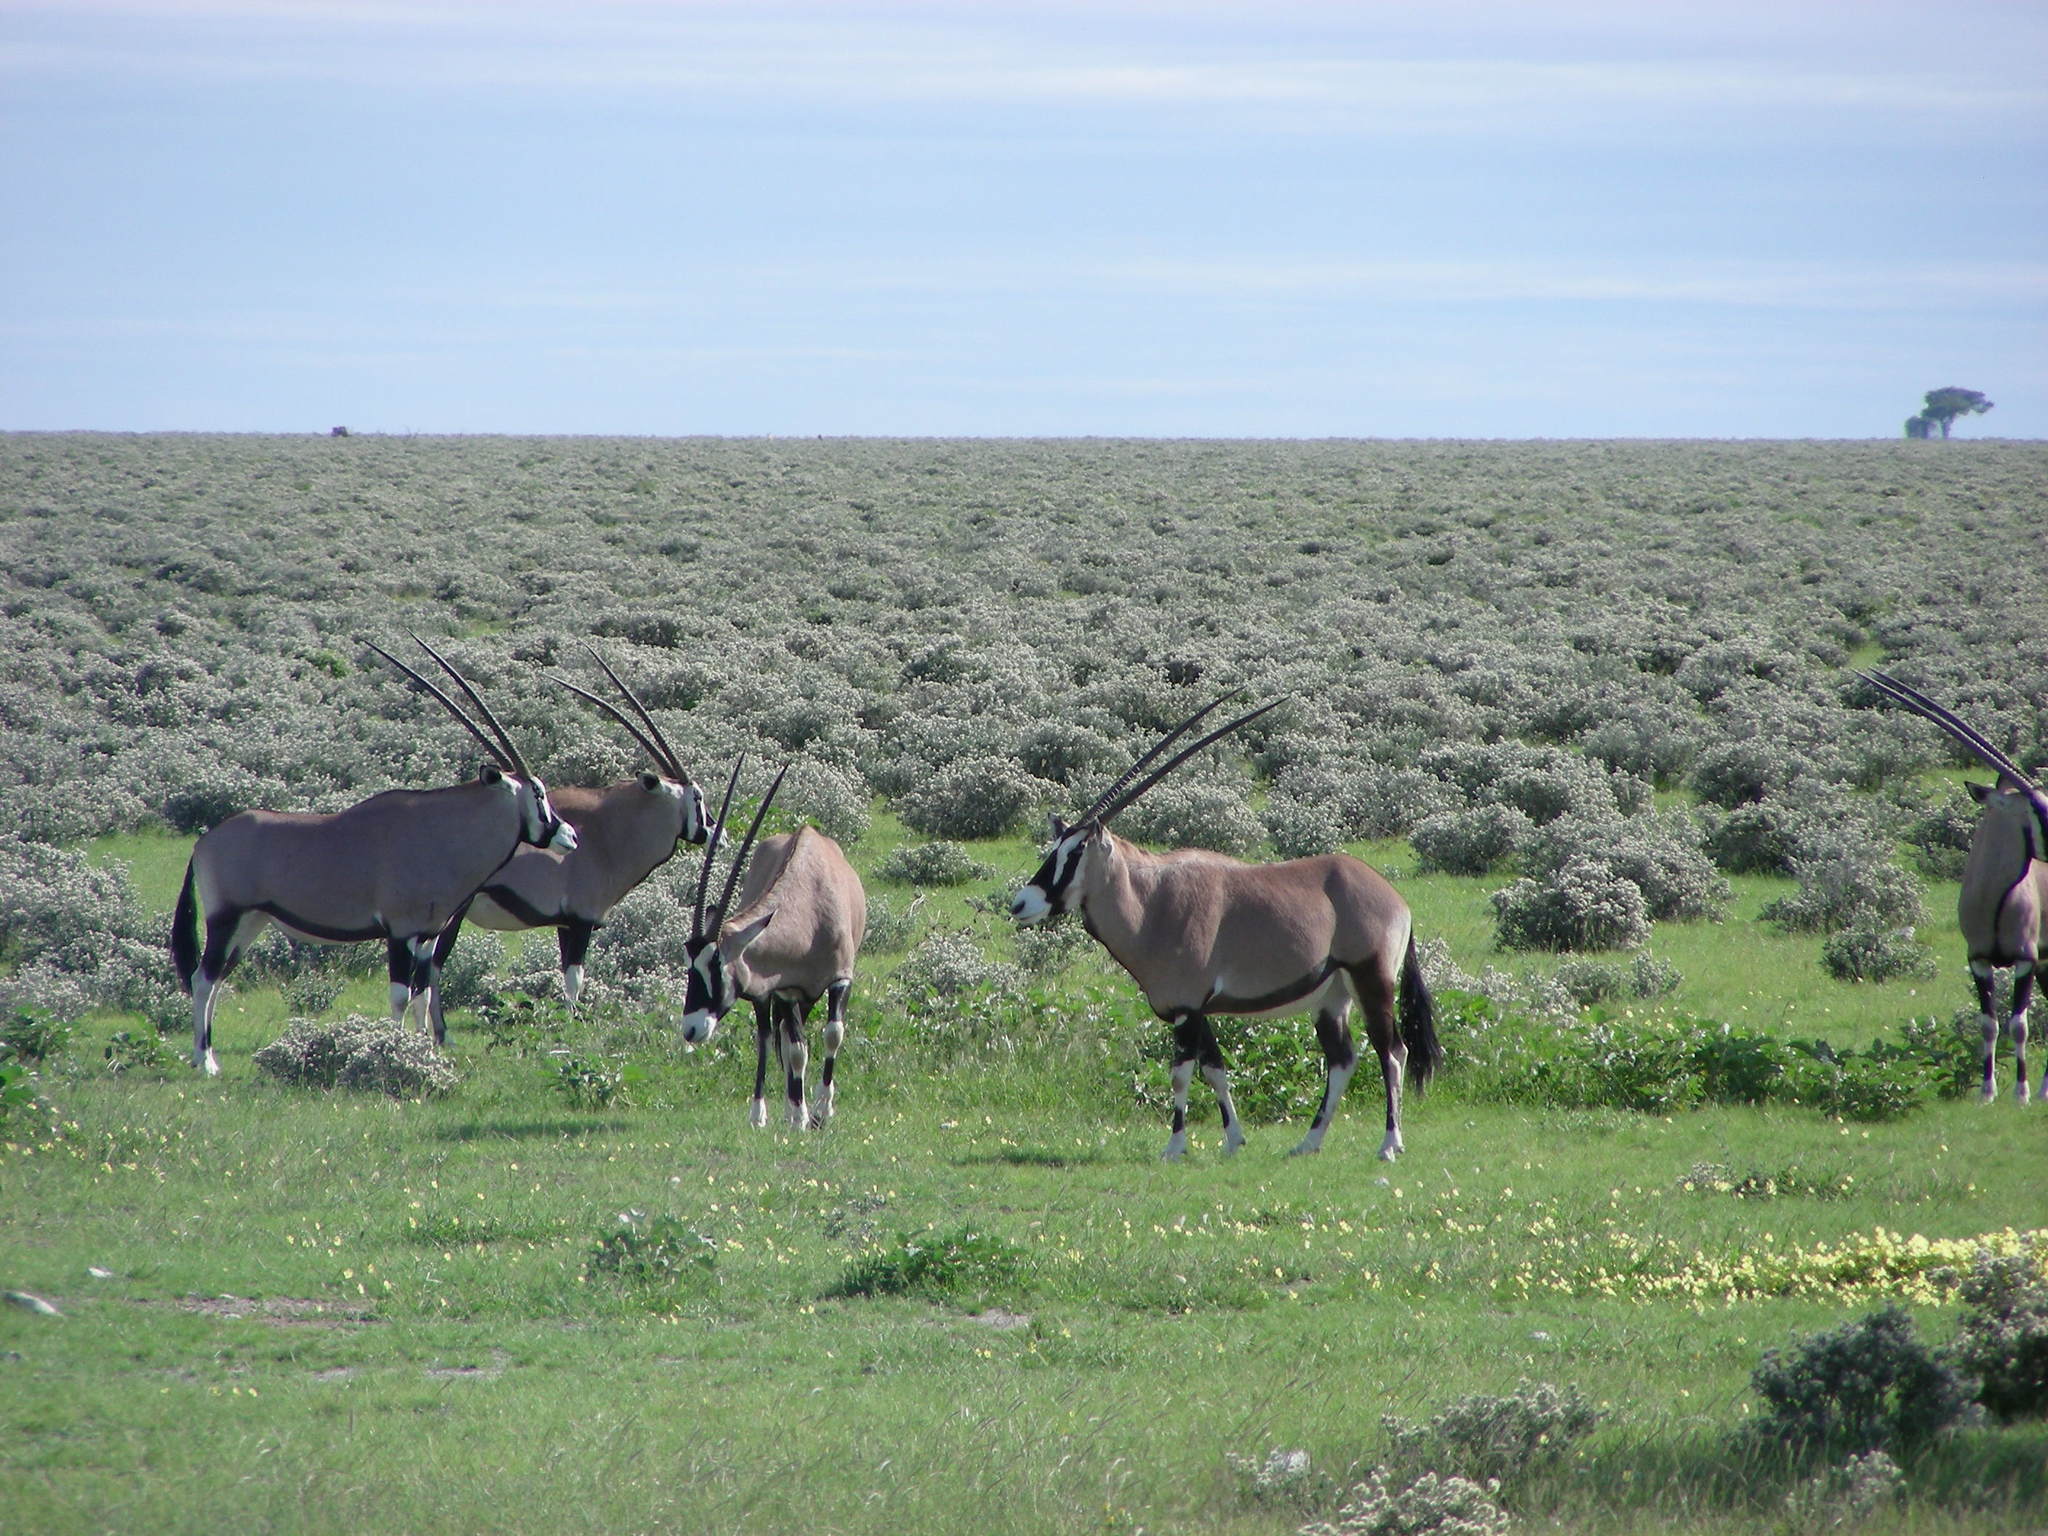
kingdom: Animalia
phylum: Chordata
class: Mammalia
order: Artiodactyla
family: Bovidae
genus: Oryx
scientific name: Oryx gazella
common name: Gemsbok
